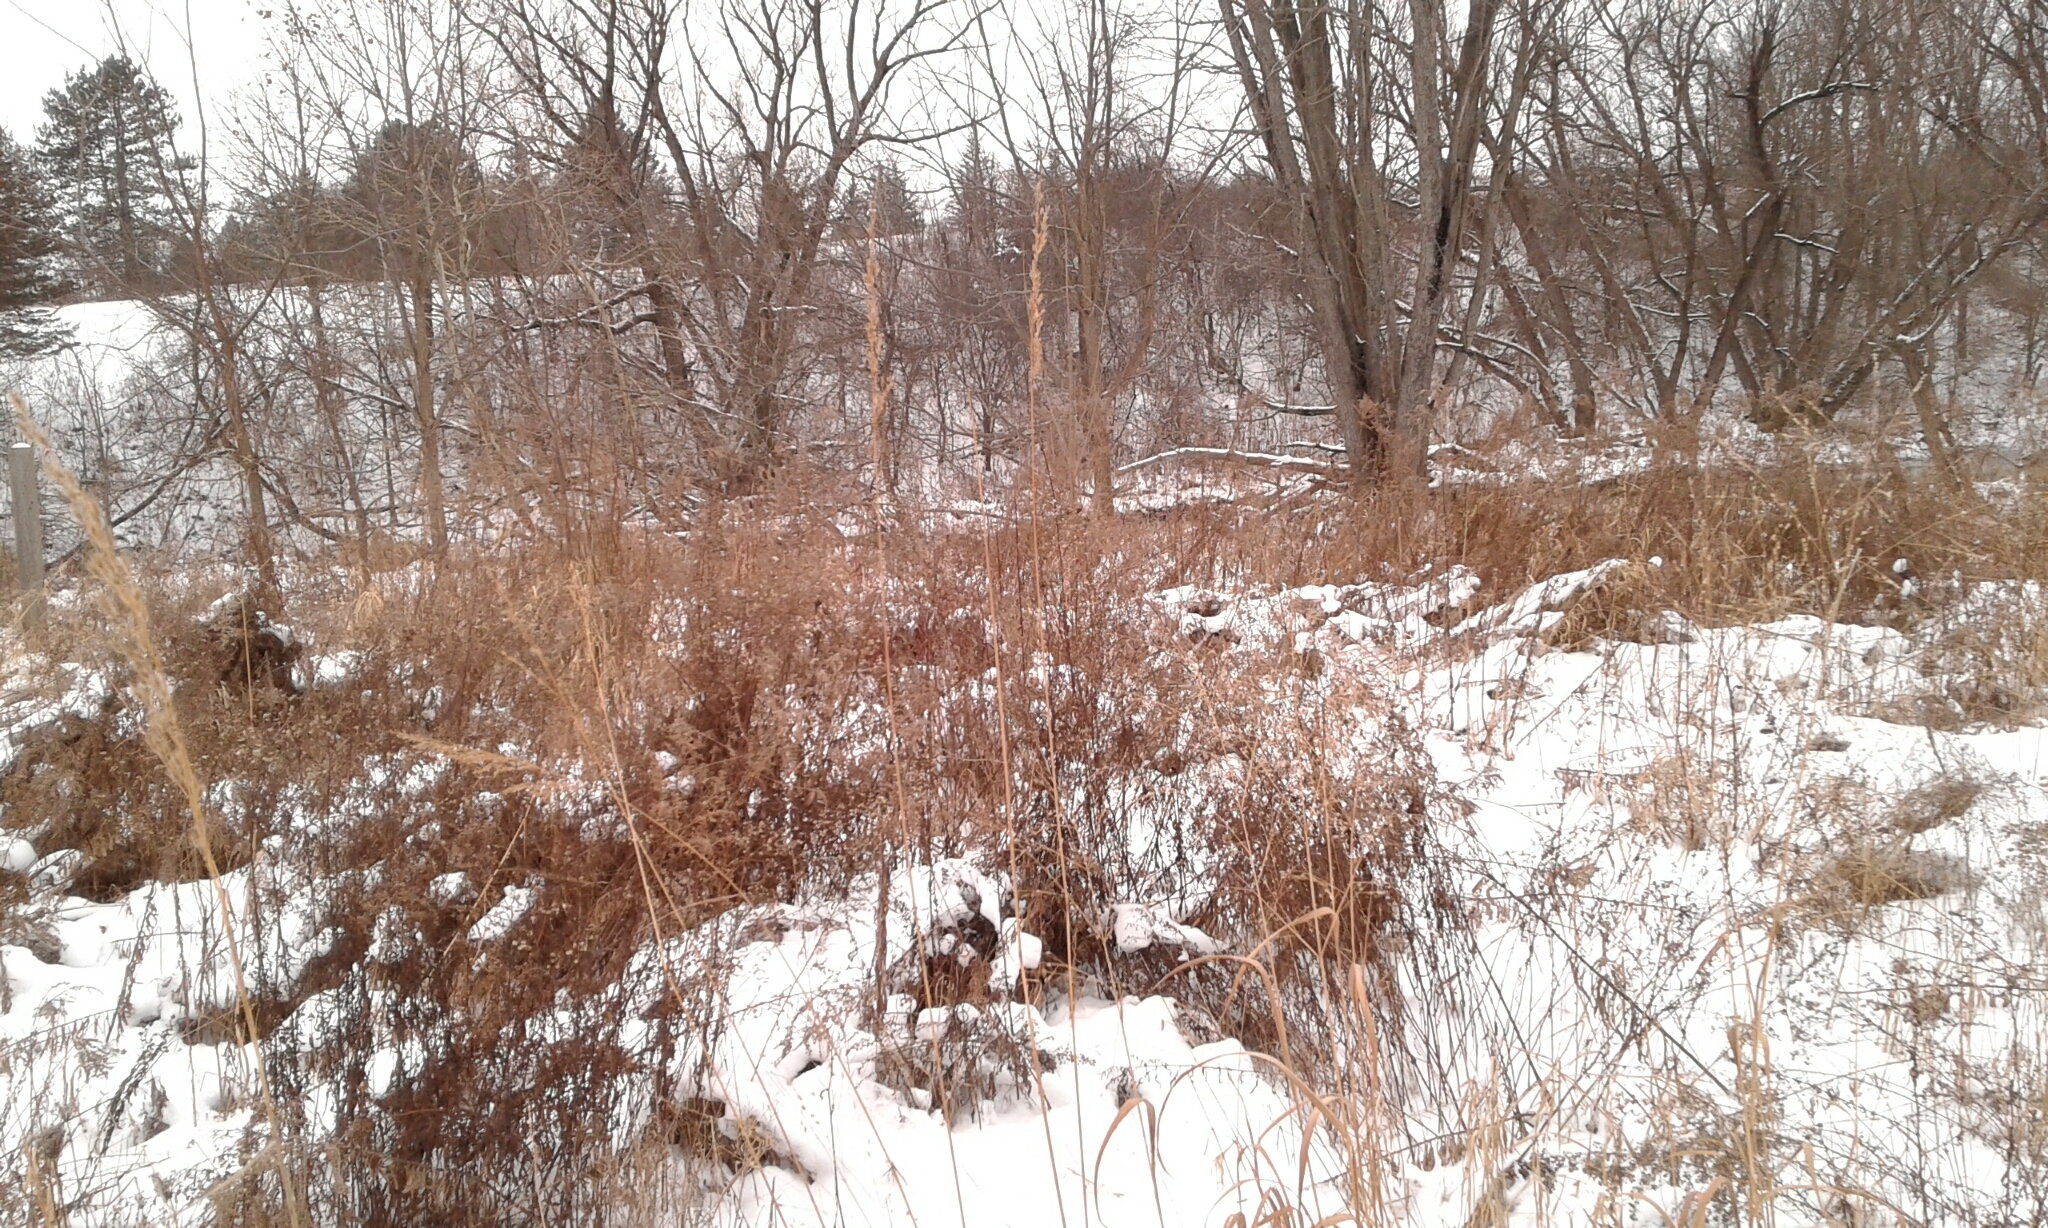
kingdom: Plantae
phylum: Tracheophyta
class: Liliopsida
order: Poales
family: Poaceae
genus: Sorghastrum
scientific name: Sorghastrum nutans
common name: Indian grass
